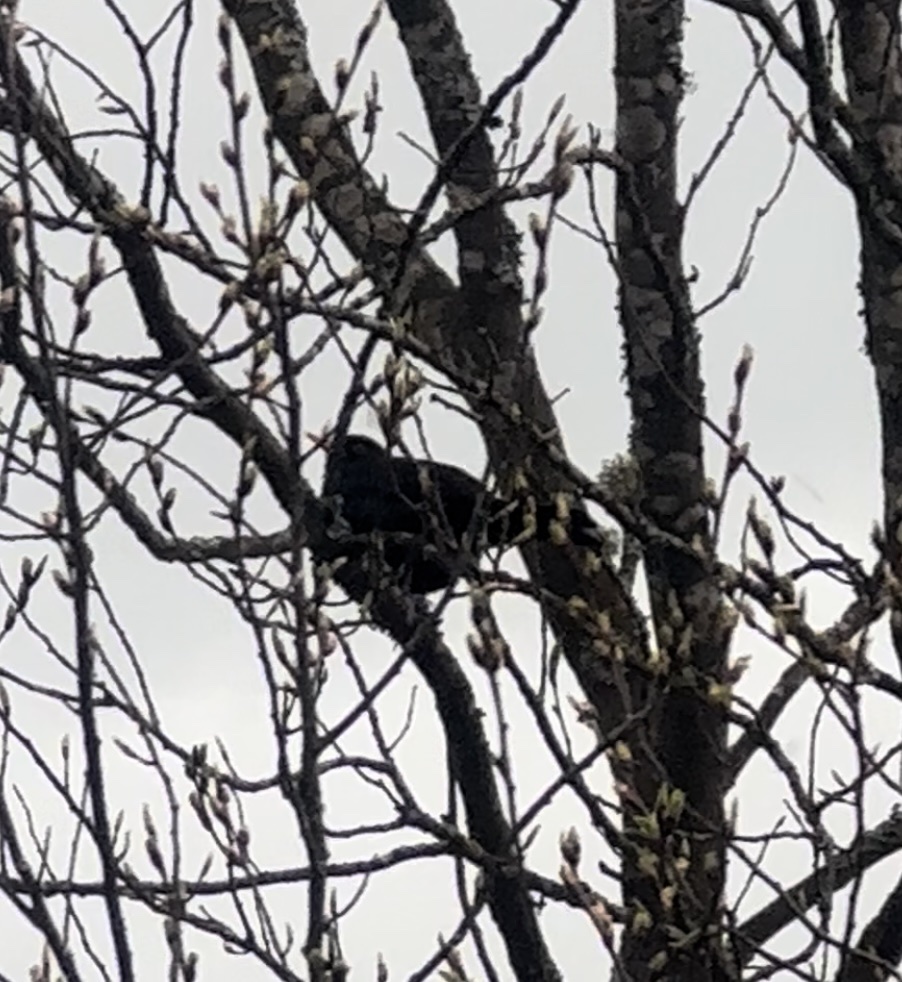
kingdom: Animalia
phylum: Chordata
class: Aves
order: Passeriformes
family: Turdidae
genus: Turdus
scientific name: Turdus merula
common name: Common blackbird
